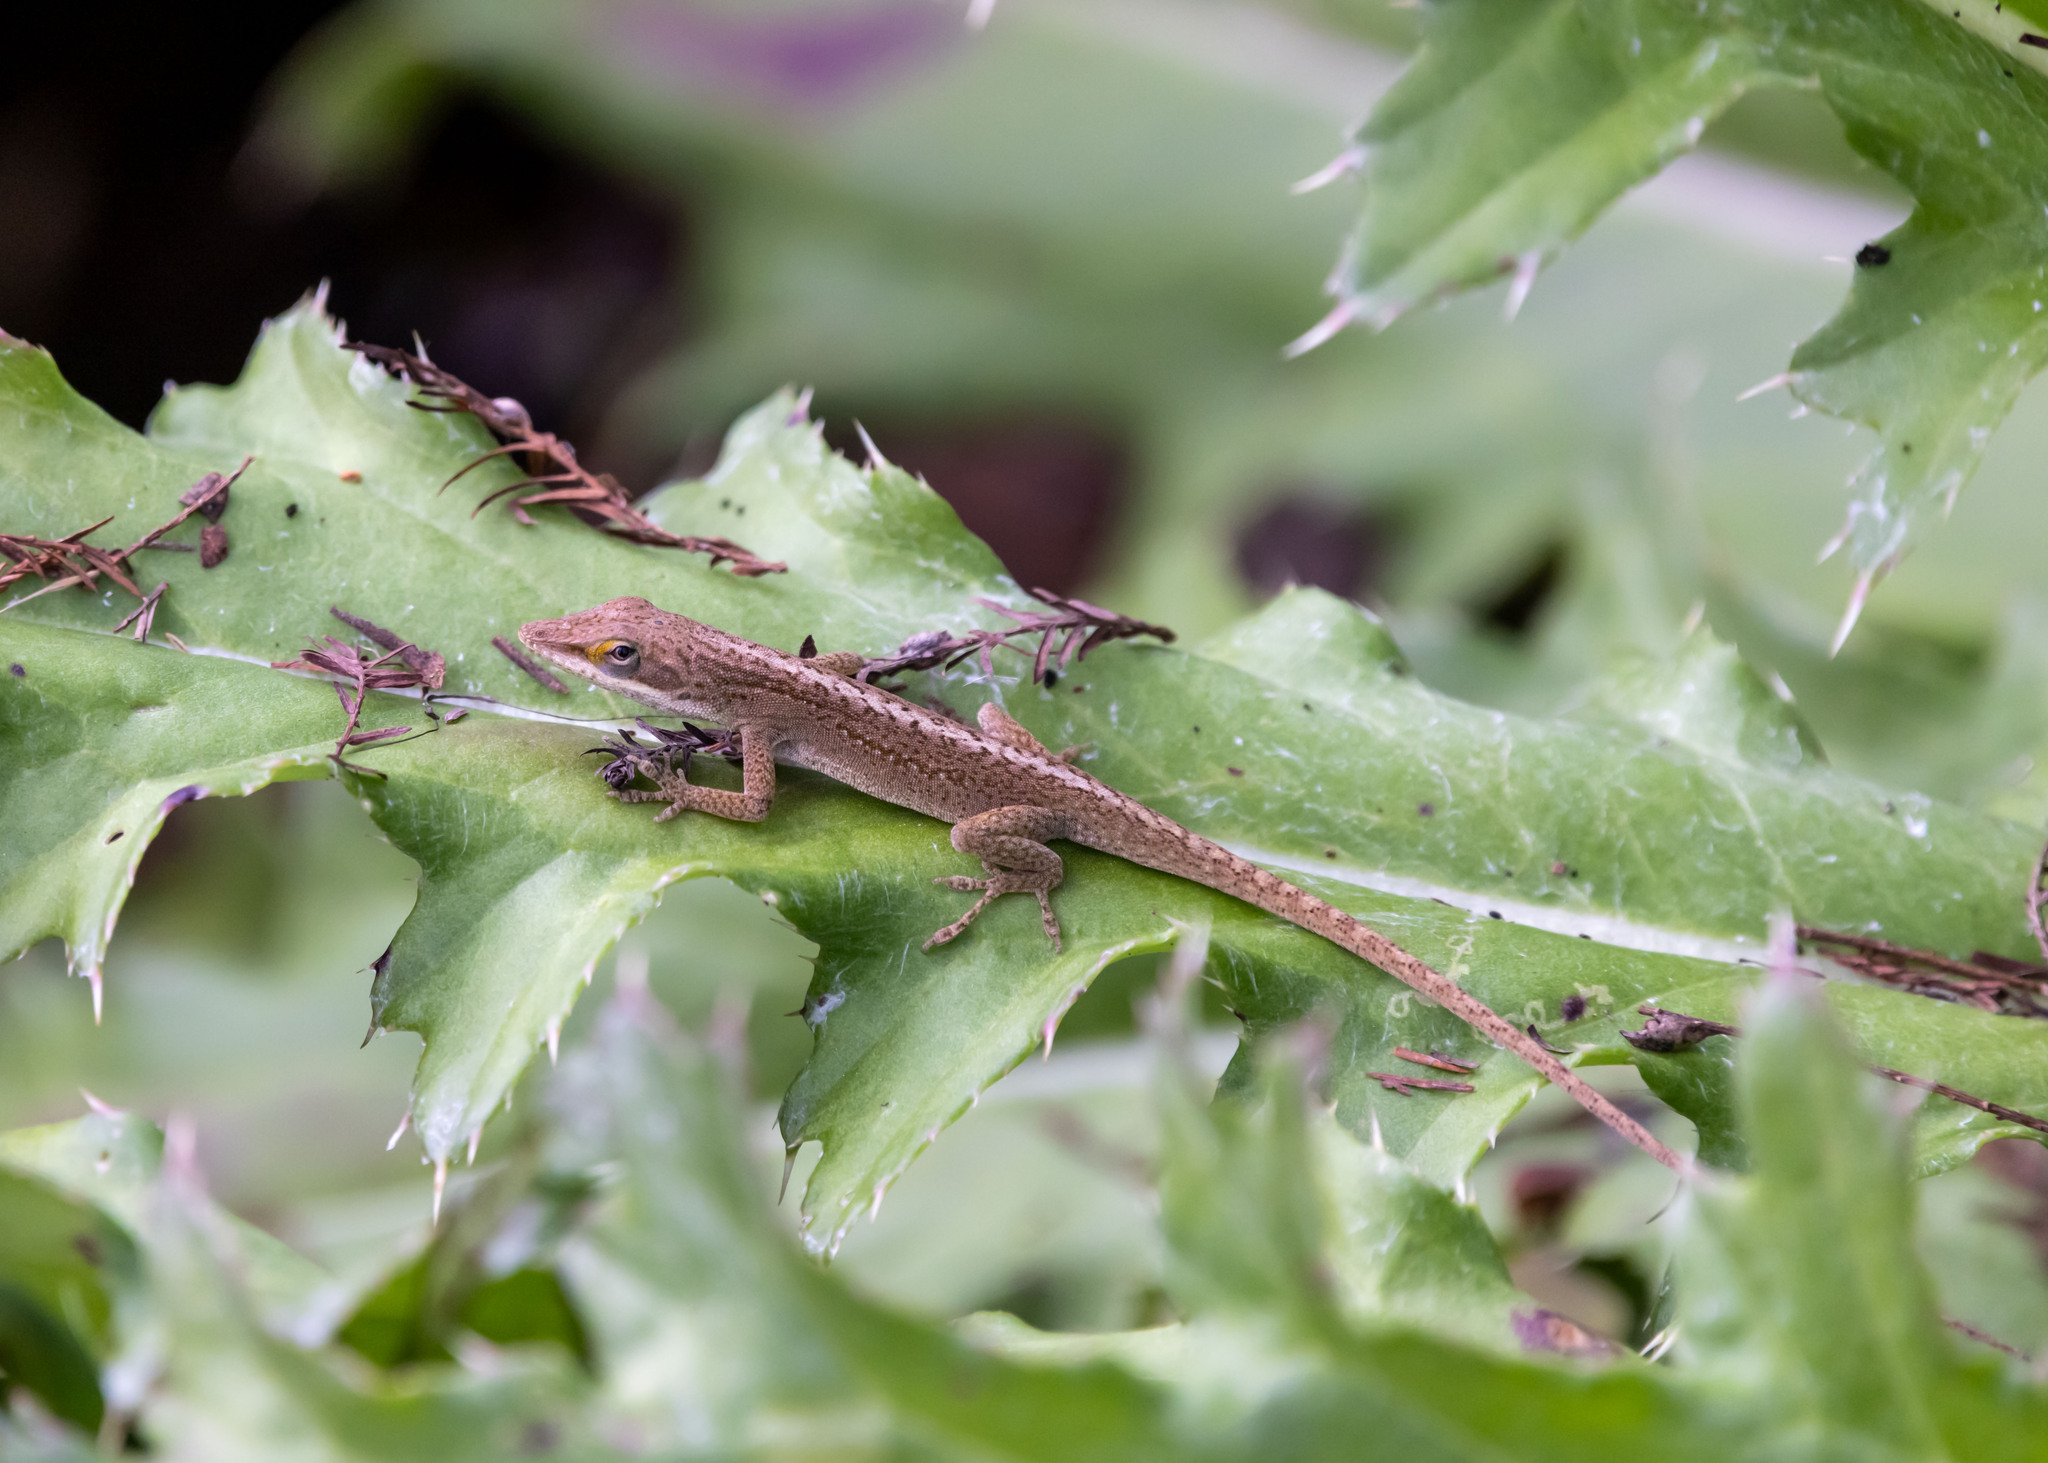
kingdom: Animalia
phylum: Chordata
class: Squamata
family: Dactyloidae
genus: Anolis
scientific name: Anolis carolinensis
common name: Green anole
